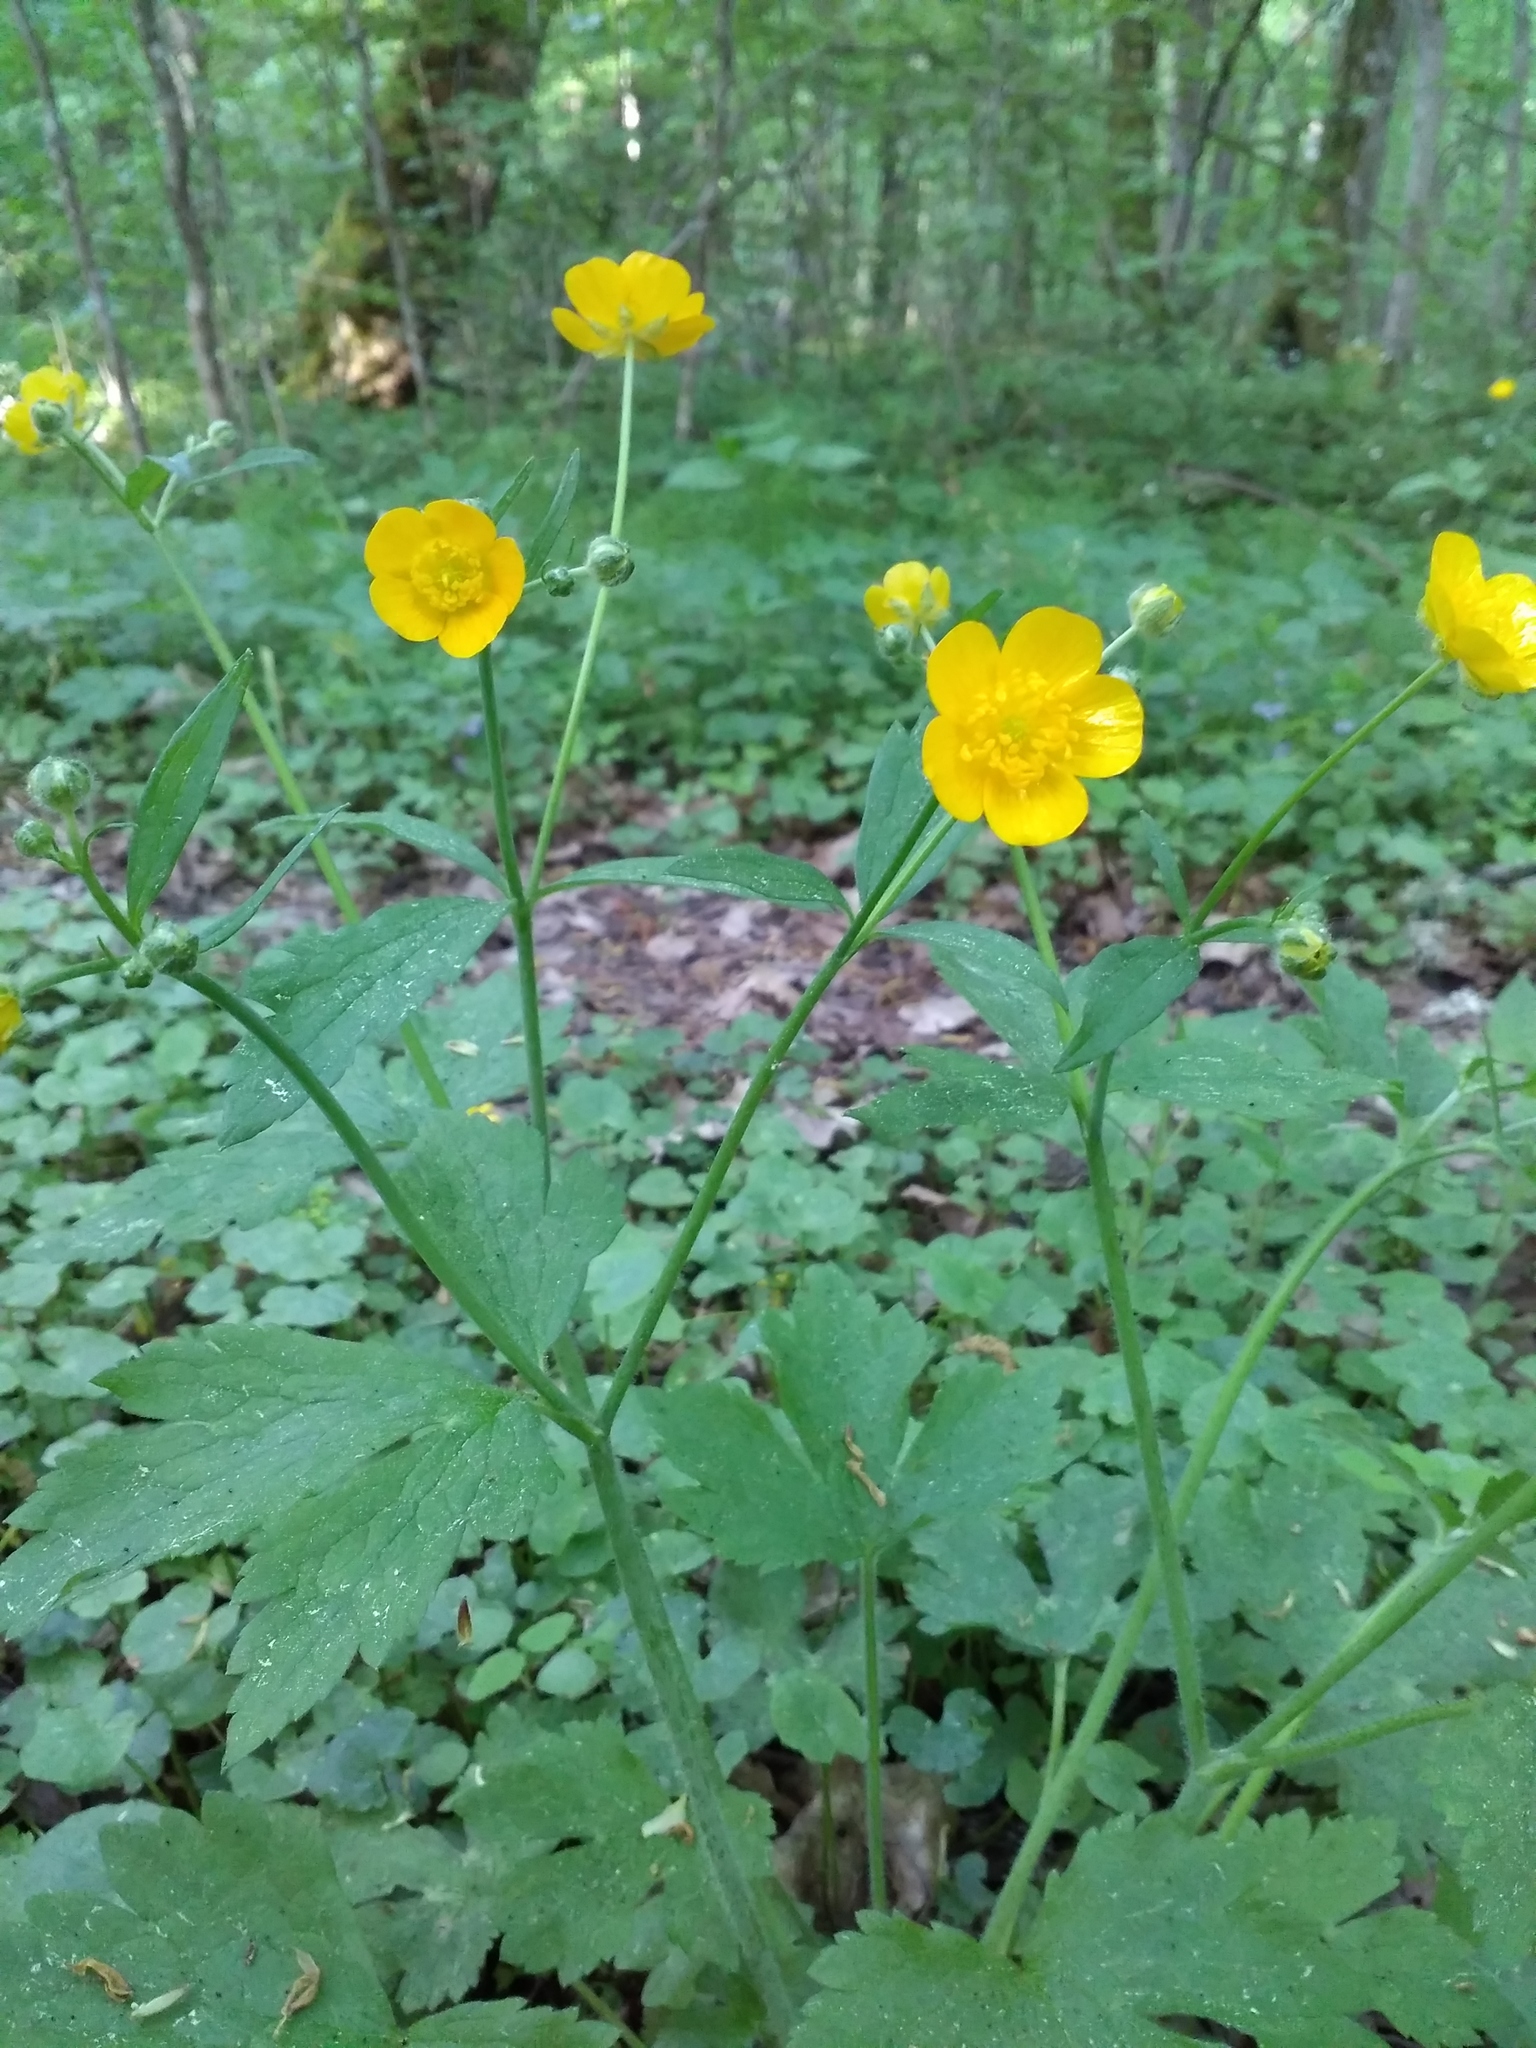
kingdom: Plantae
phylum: Tracheophyta
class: Magnoliopsida
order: Ranunculales
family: Ranunculaceae
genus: Ranunculus
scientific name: Ranunculus lanuginosus
